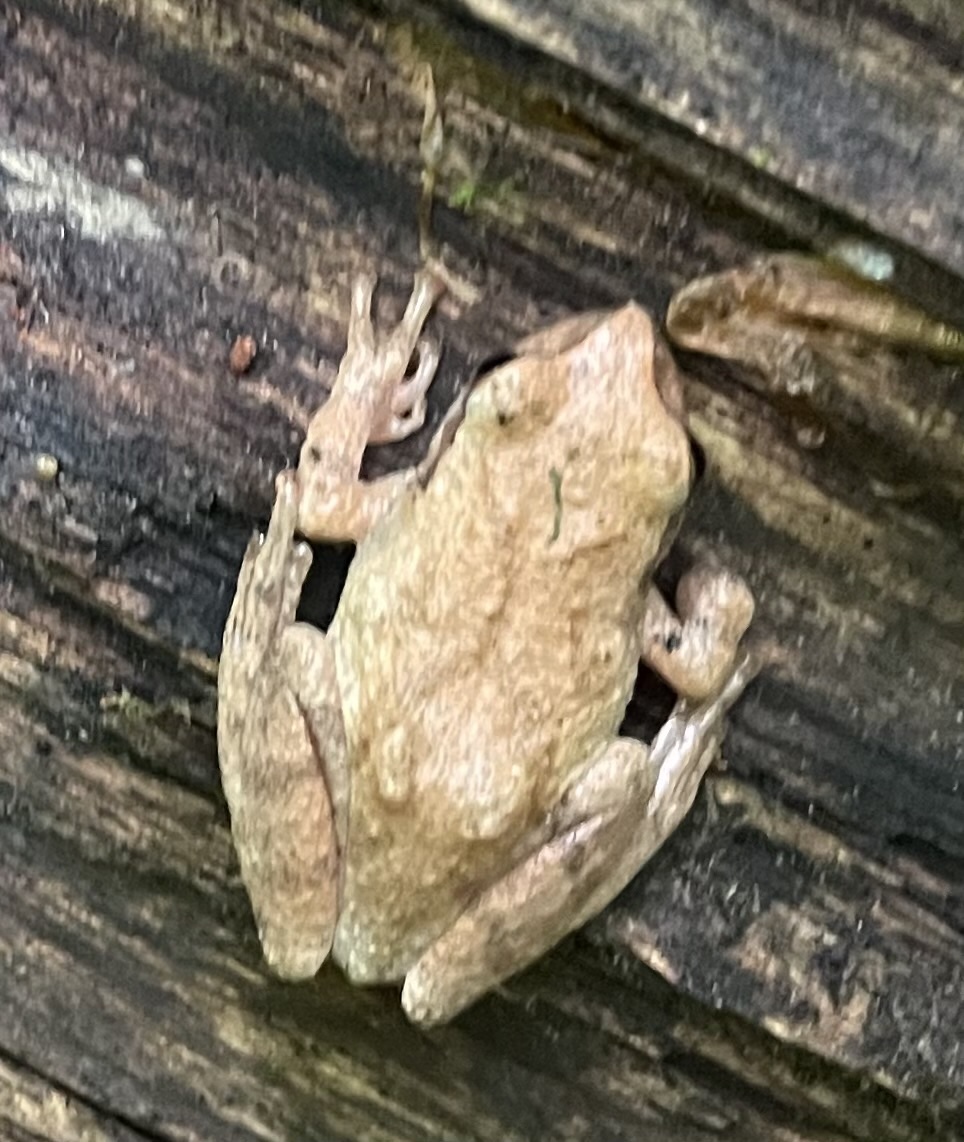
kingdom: Animalia
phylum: Chordata
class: Amphibia
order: Anura
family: Hylidae
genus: Pseudacris
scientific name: Pseudacris crucifer
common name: Spring peeper
